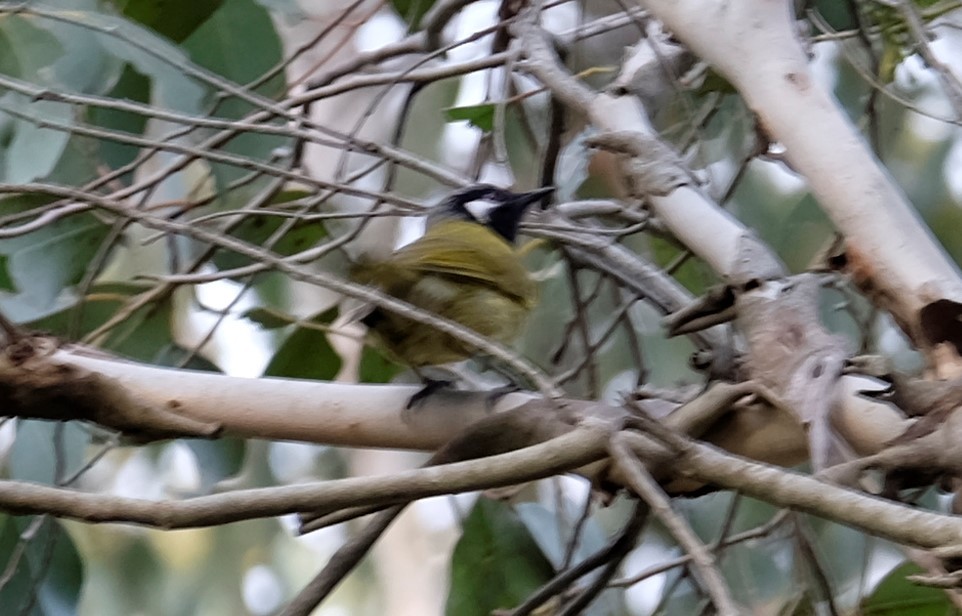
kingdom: Animalia
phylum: Chordata
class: Aves
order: Passeriformes
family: Meliphagidae
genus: Nesoptilotis
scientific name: Nesoptilotis leucotis
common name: White-eared honeyeater
